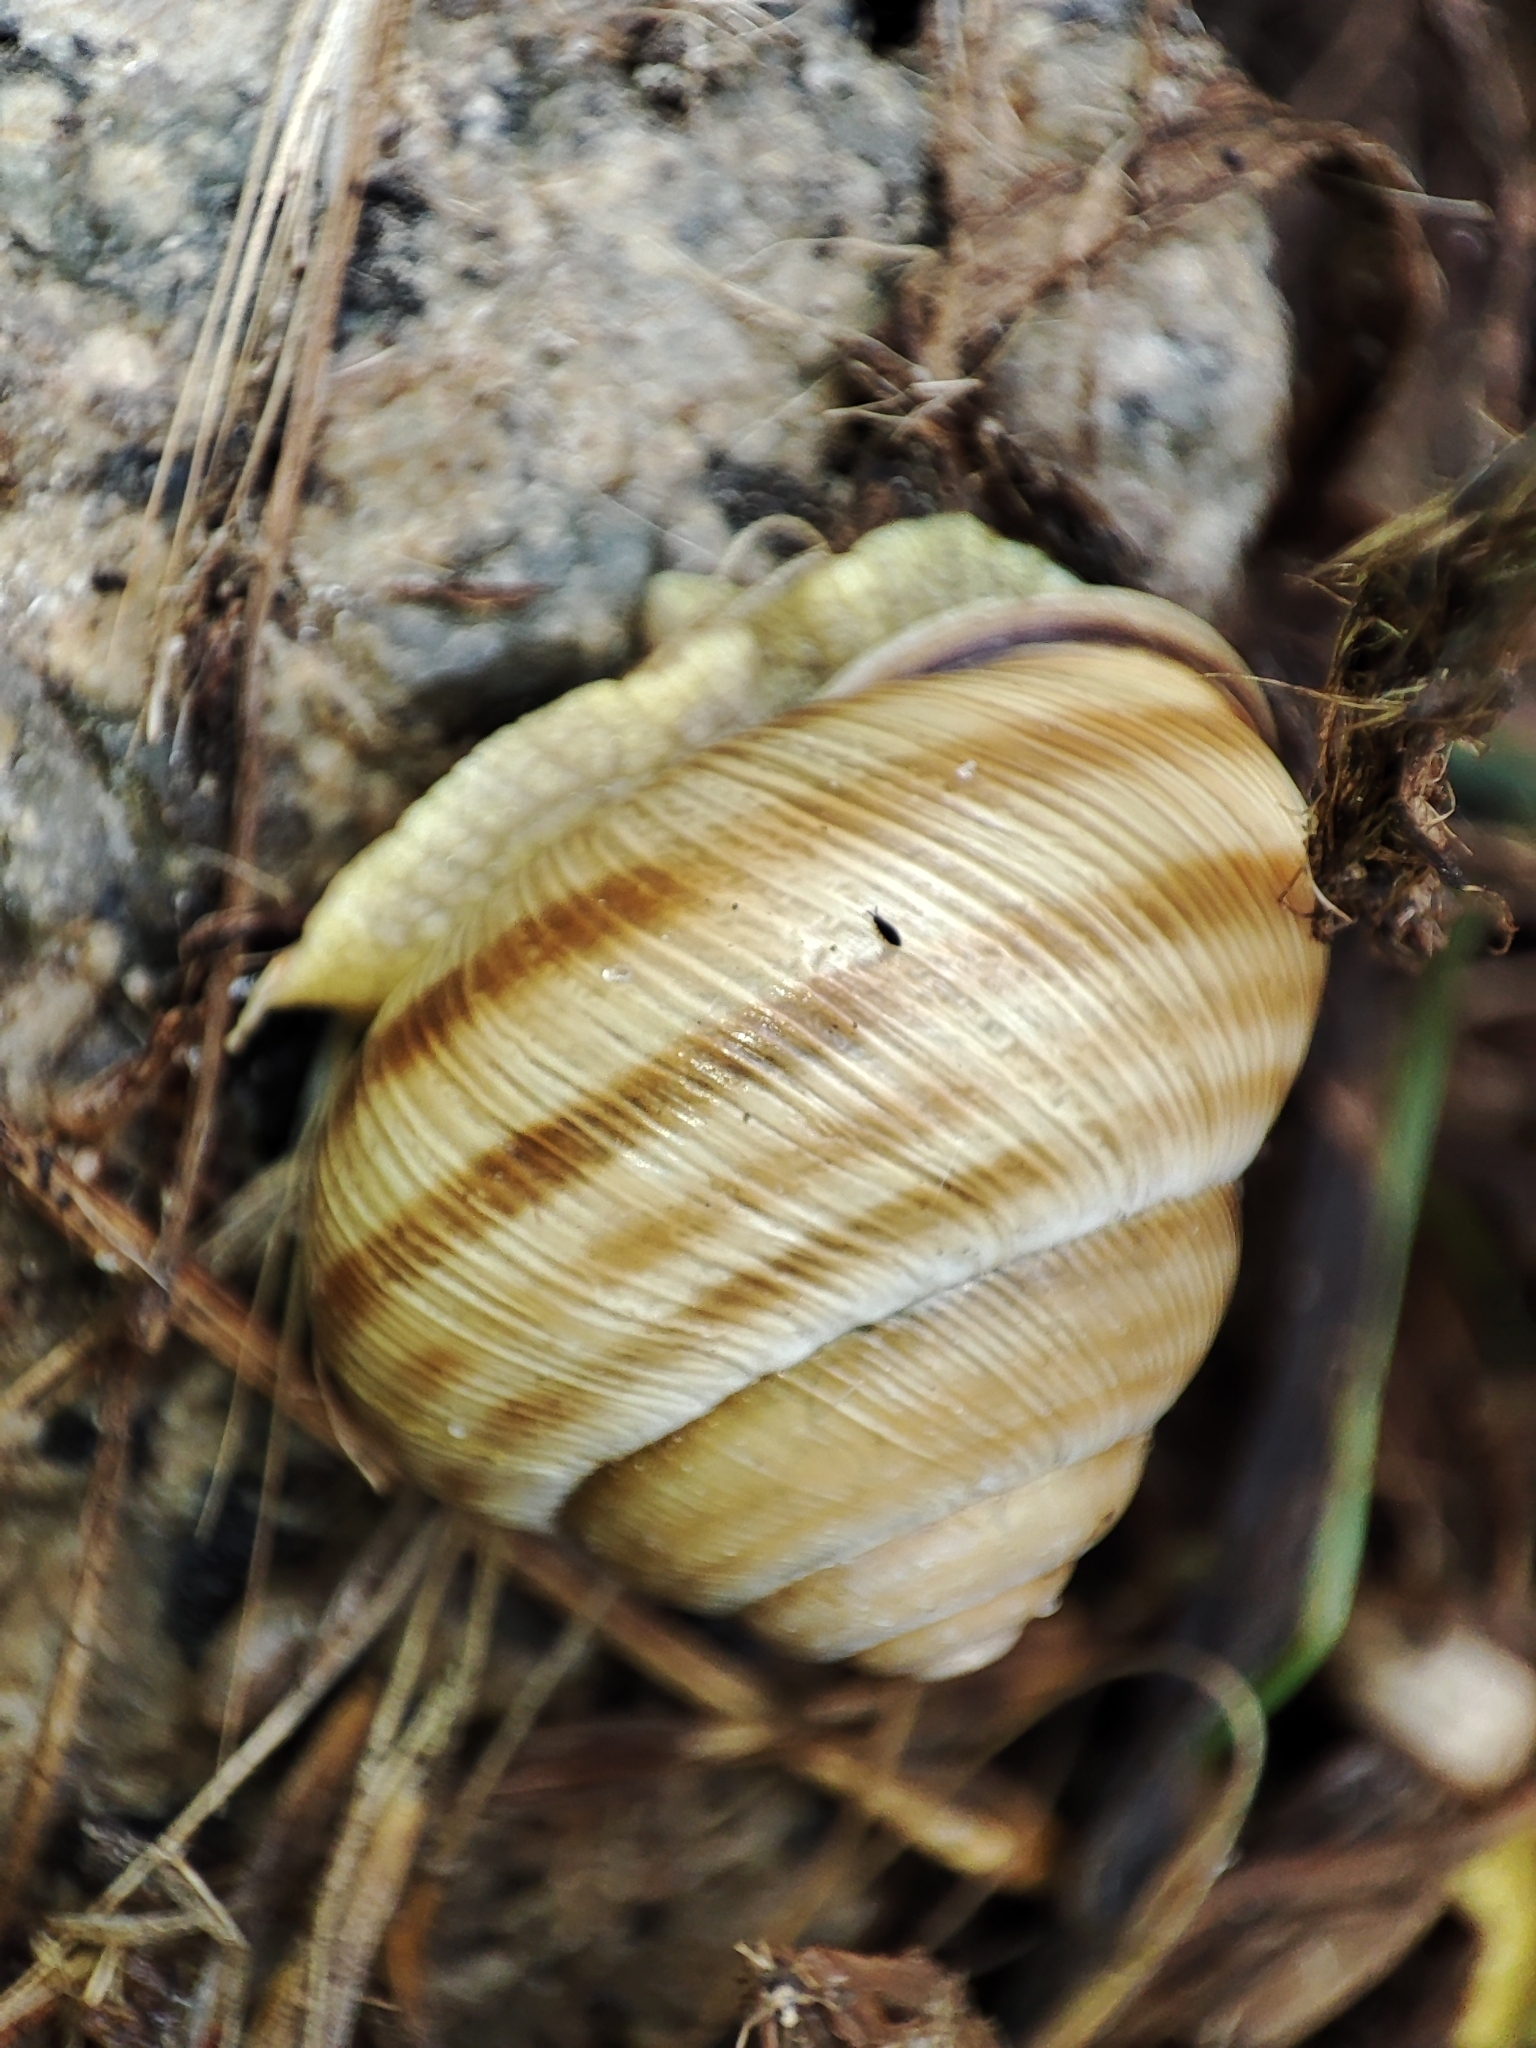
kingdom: Animalia
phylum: Mollusca
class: Gastropoda
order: Stylommatophora
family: Helicidae
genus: Caucasotachea
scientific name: Caucasotachea vindobonensis
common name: European helicid land snail
